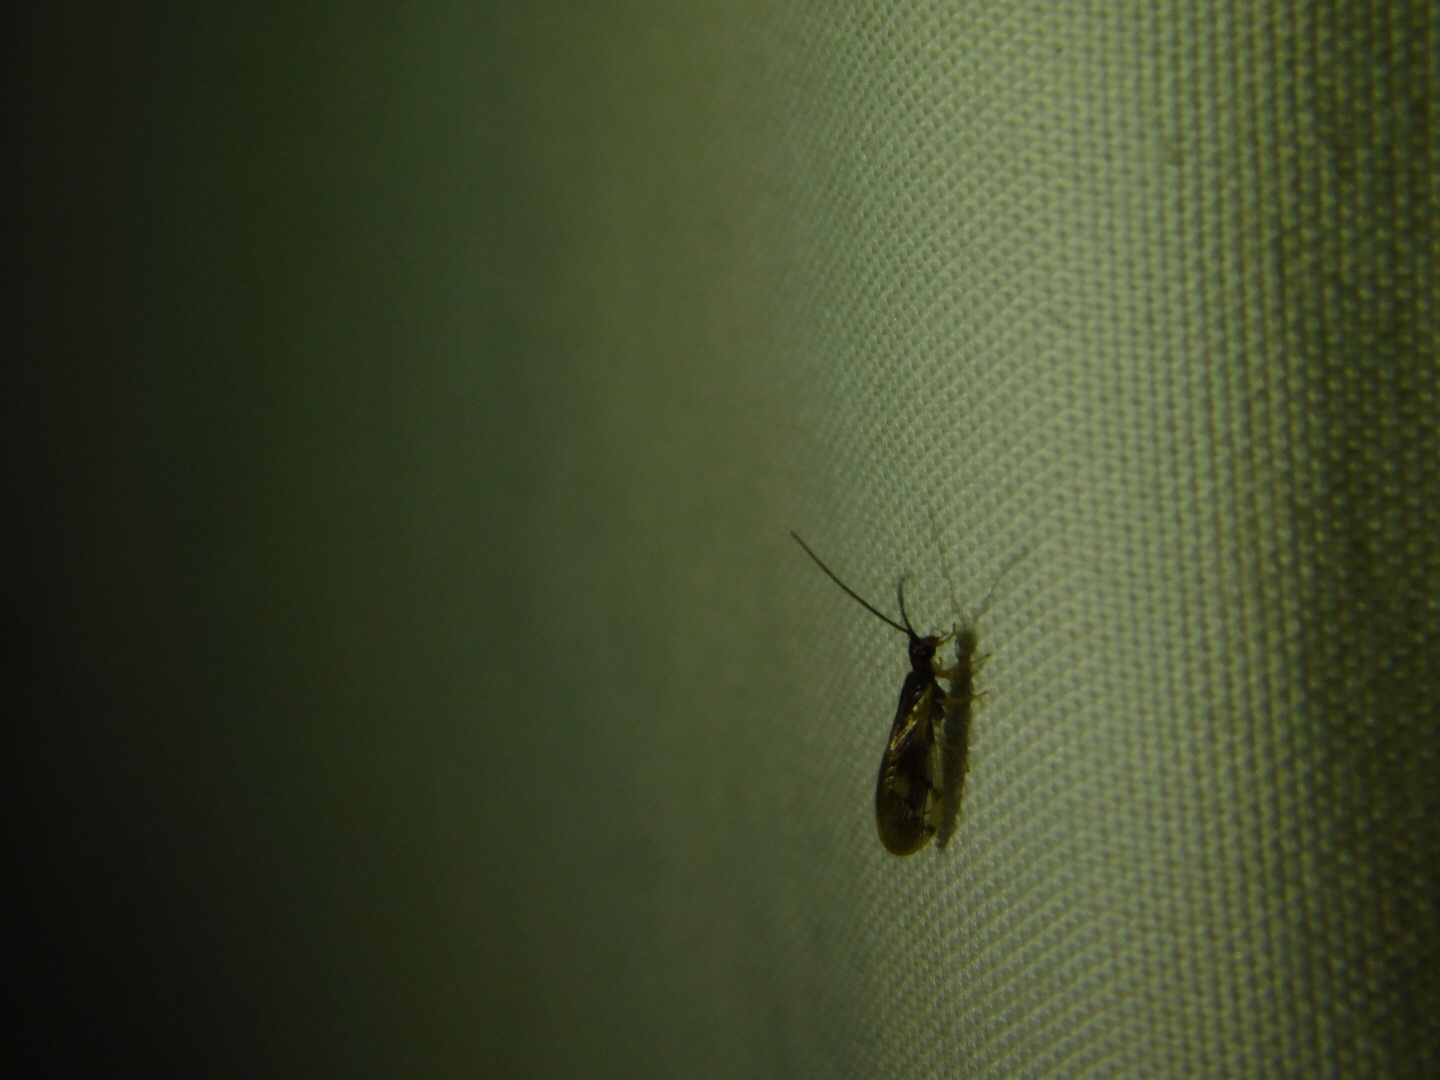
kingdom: Animalia
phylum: Arthropoda
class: Insecta
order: Neuroptera
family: Sisyridae
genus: Climacia
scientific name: Climacia areolaris
